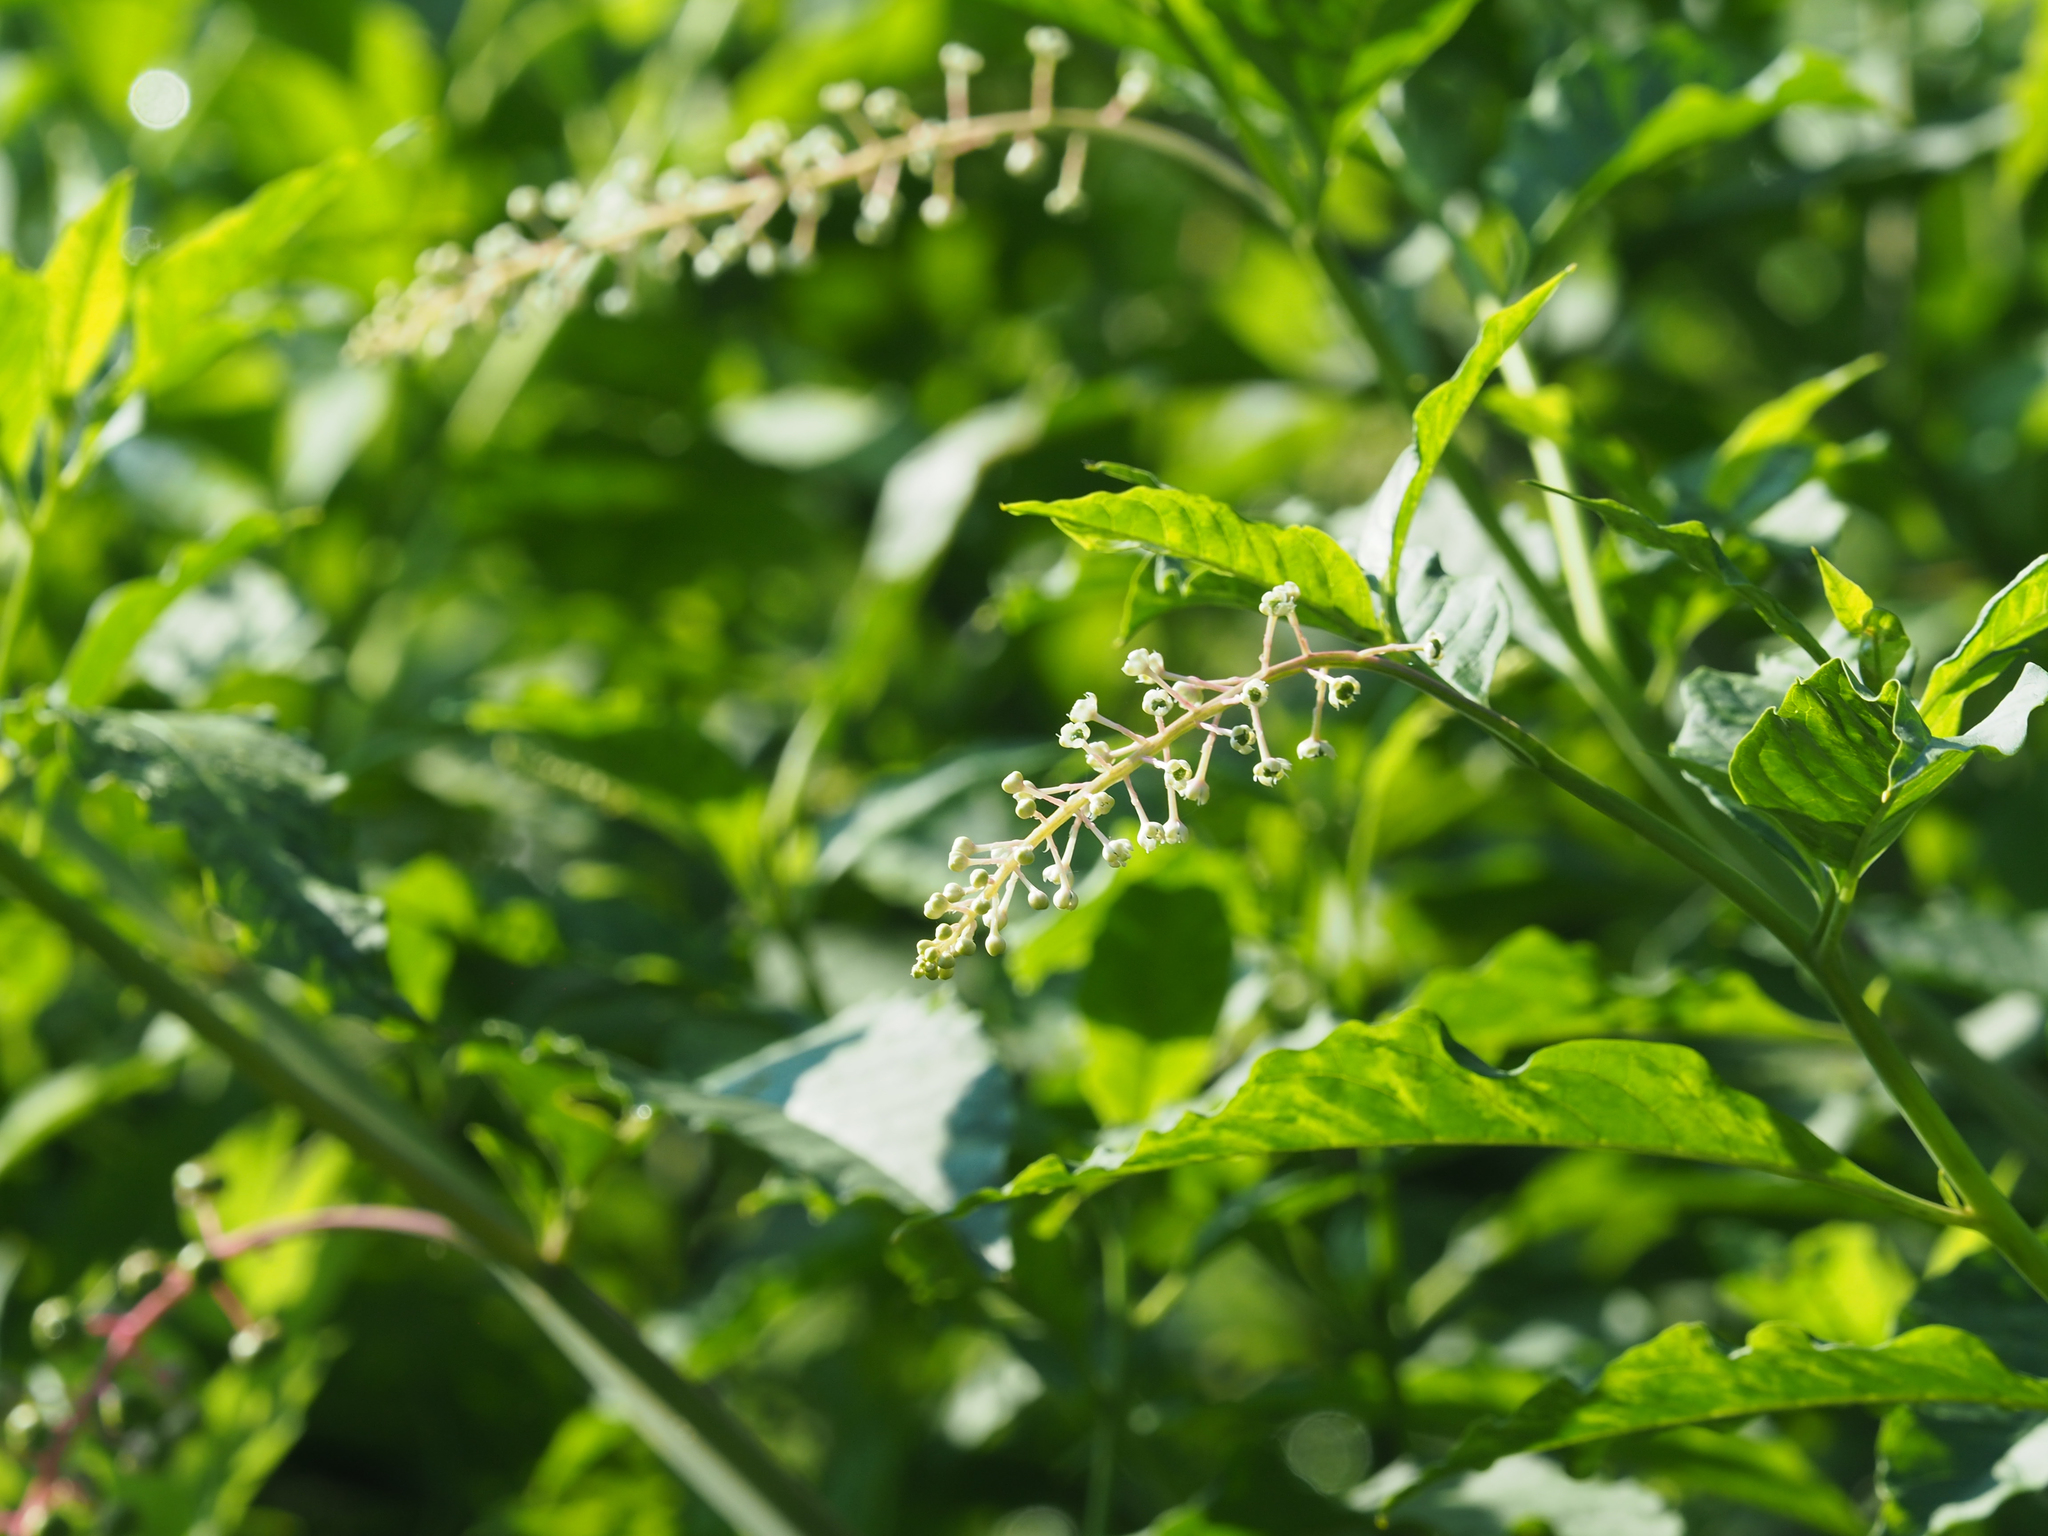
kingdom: Plantae
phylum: Tracheophyta
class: Magnoliopsida
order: Caryophyllales
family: Phytolaccaceae
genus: Phytolacca
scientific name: Phytolacca americana
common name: American pokeweed
